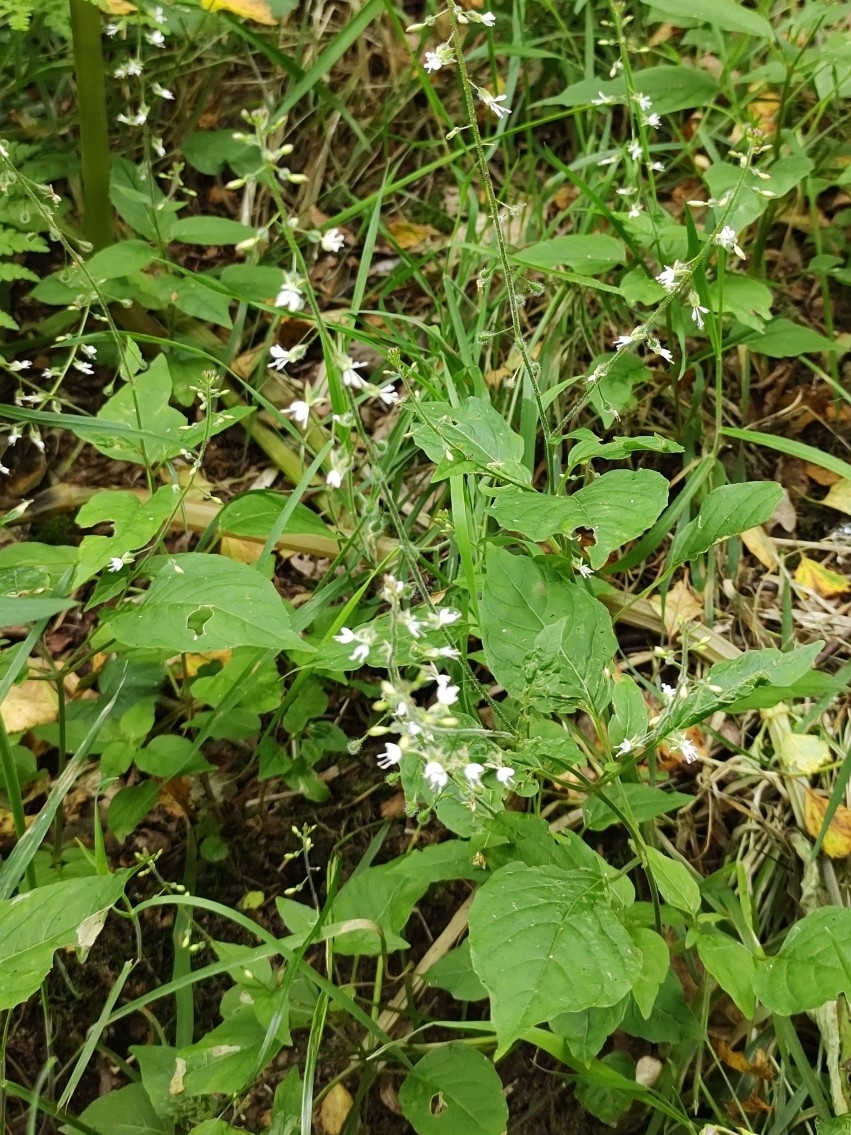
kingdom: Plantae
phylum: Tracheophyta
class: Magnoliopsida
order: Myrtales
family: Onagraceae
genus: Circaea
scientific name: Circaea lutetiana
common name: Enchanter's-nightshade
